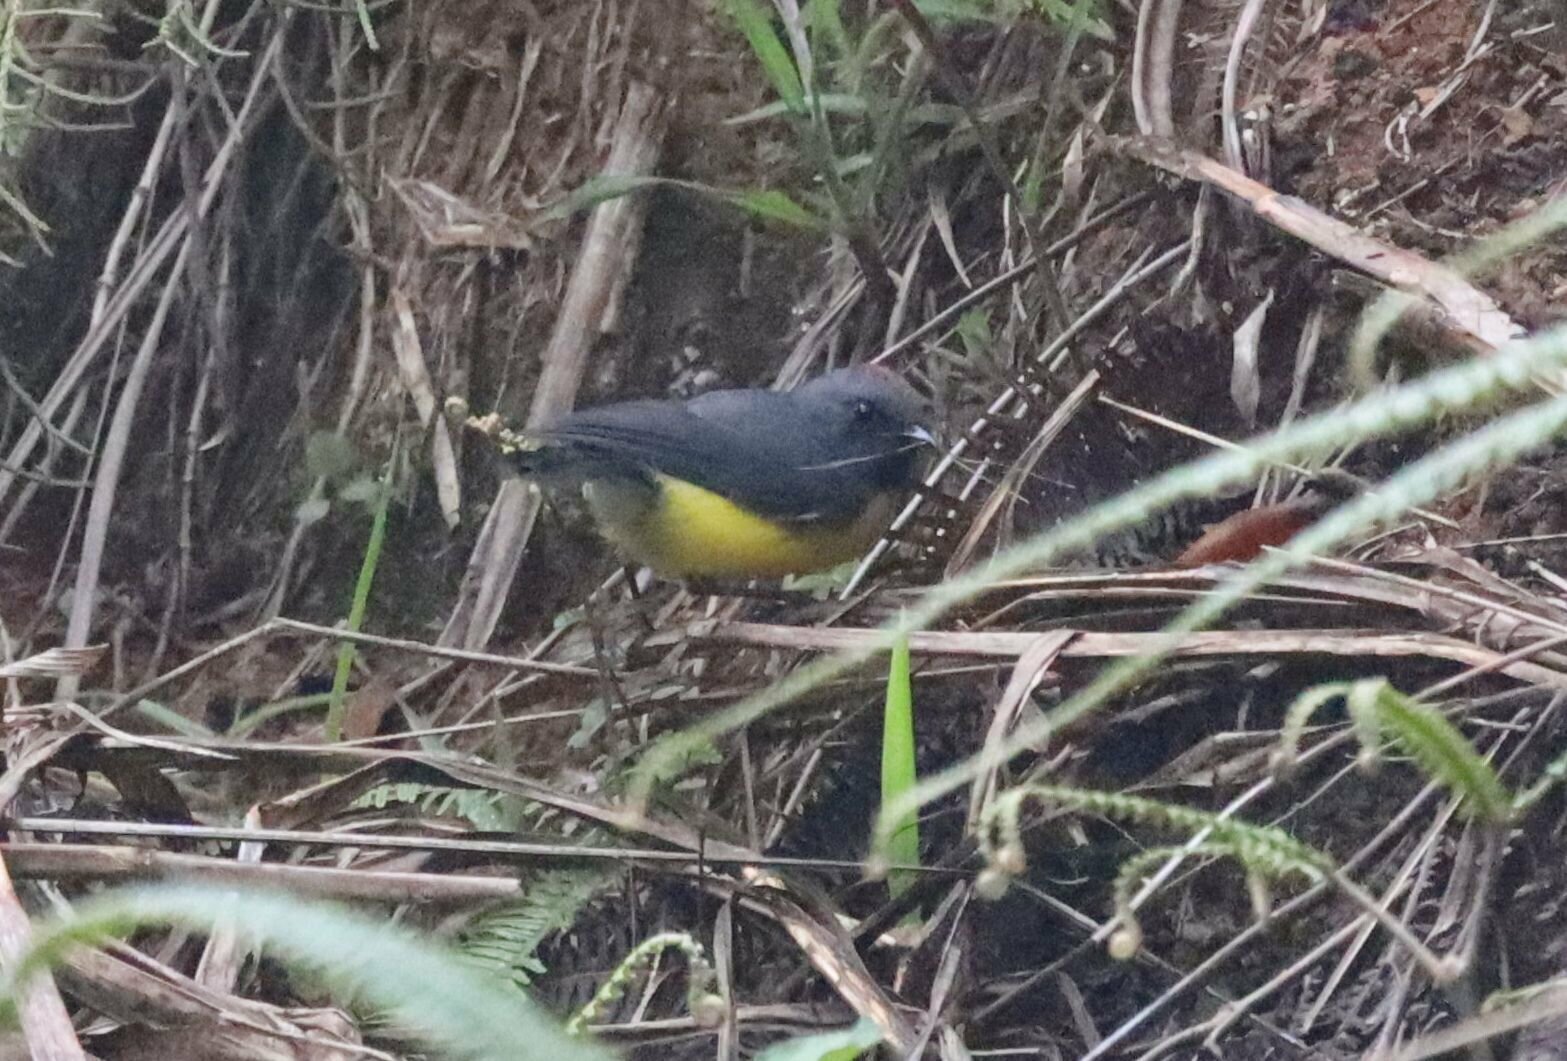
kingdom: Animalia
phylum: Chordata
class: Aves
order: Passeriformes
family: Parulidae
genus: Myioborus
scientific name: Myioborus miniatus
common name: Slate-throated redstart
